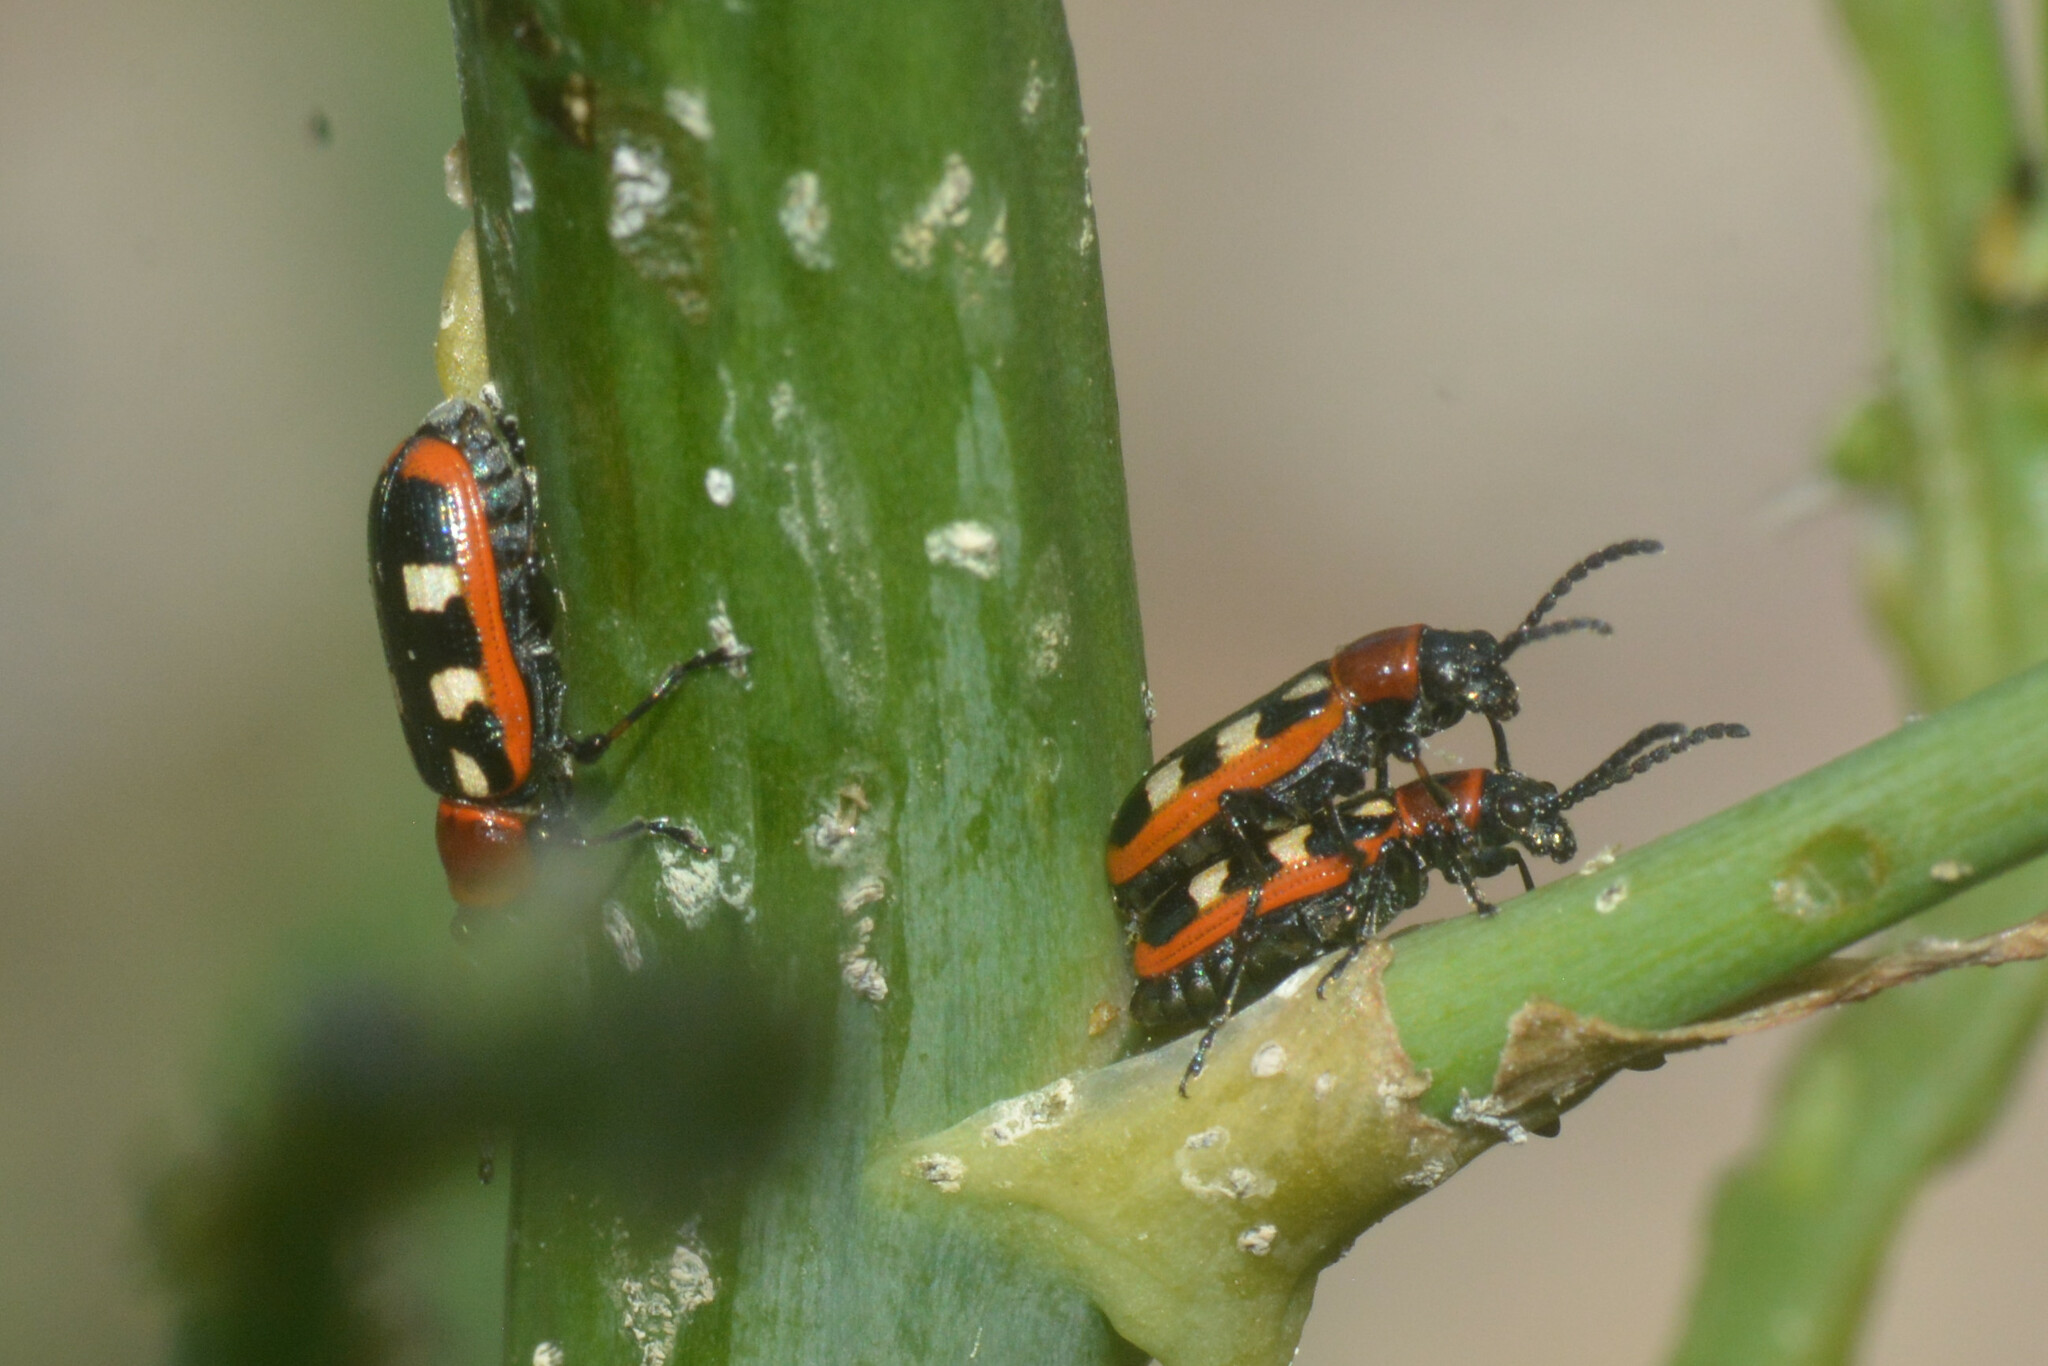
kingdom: Animalia
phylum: Arthropoda
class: Insecta
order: Coleoptera
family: Chrysomelidae
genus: Crioceris
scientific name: Crioceris asparagi
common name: Asparagus beetle
